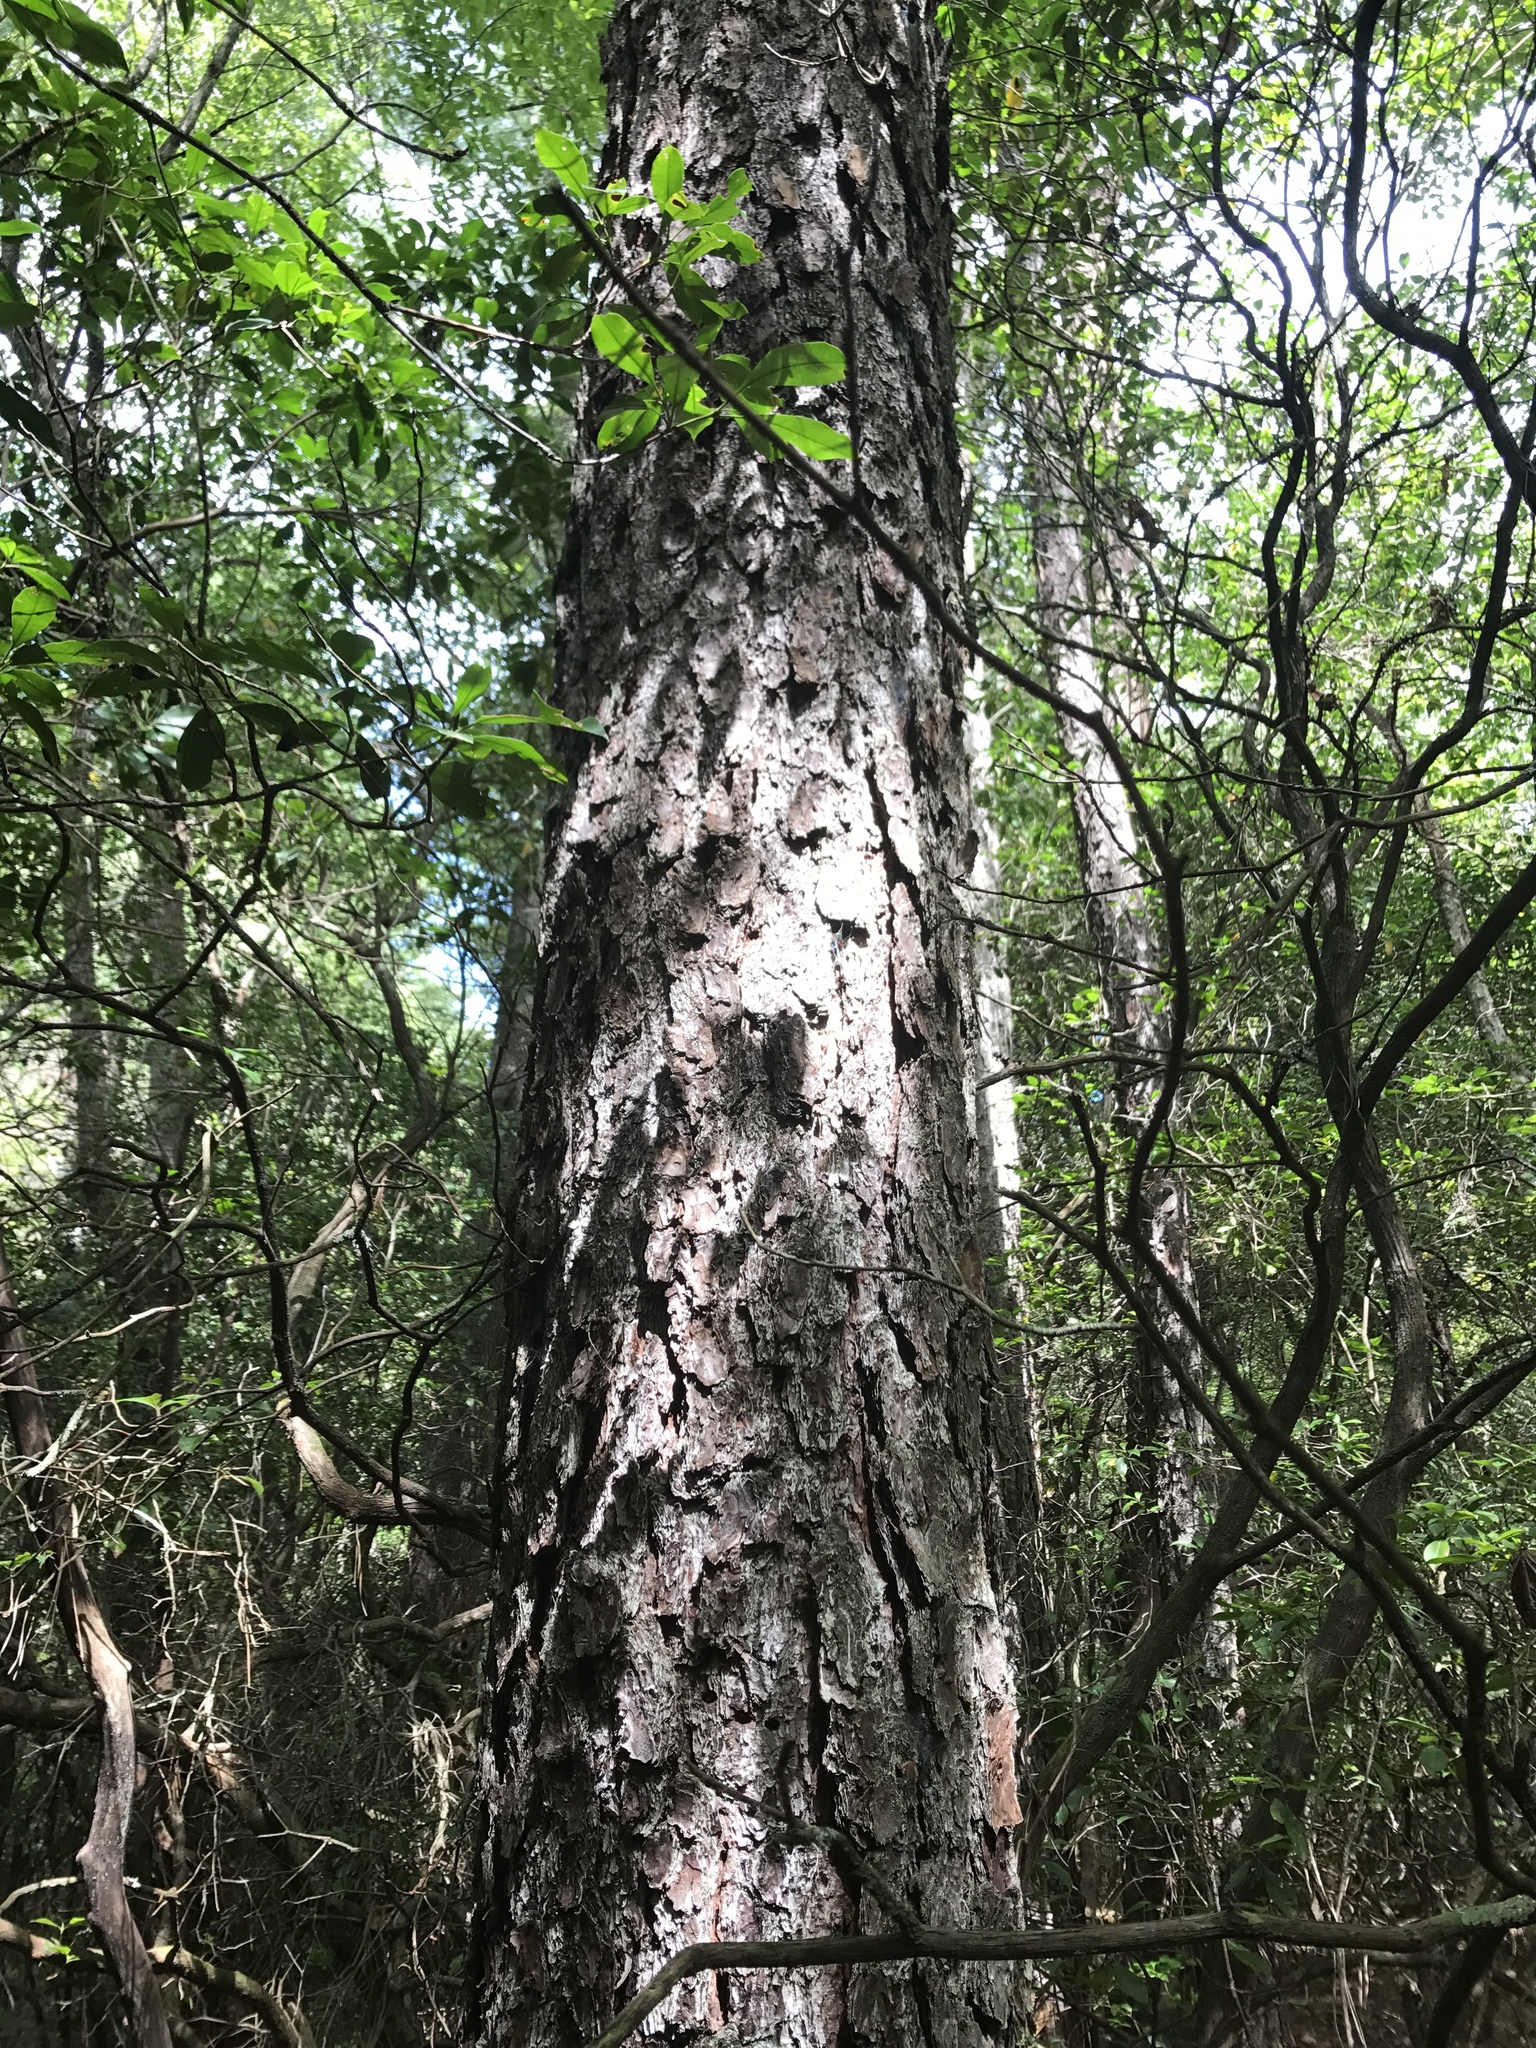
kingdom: Plantae
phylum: Tracheophyta
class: Pinopsida
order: Pinales
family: Pinaceae
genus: Pinus
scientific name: Pinus rigida
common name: Pitch pine
